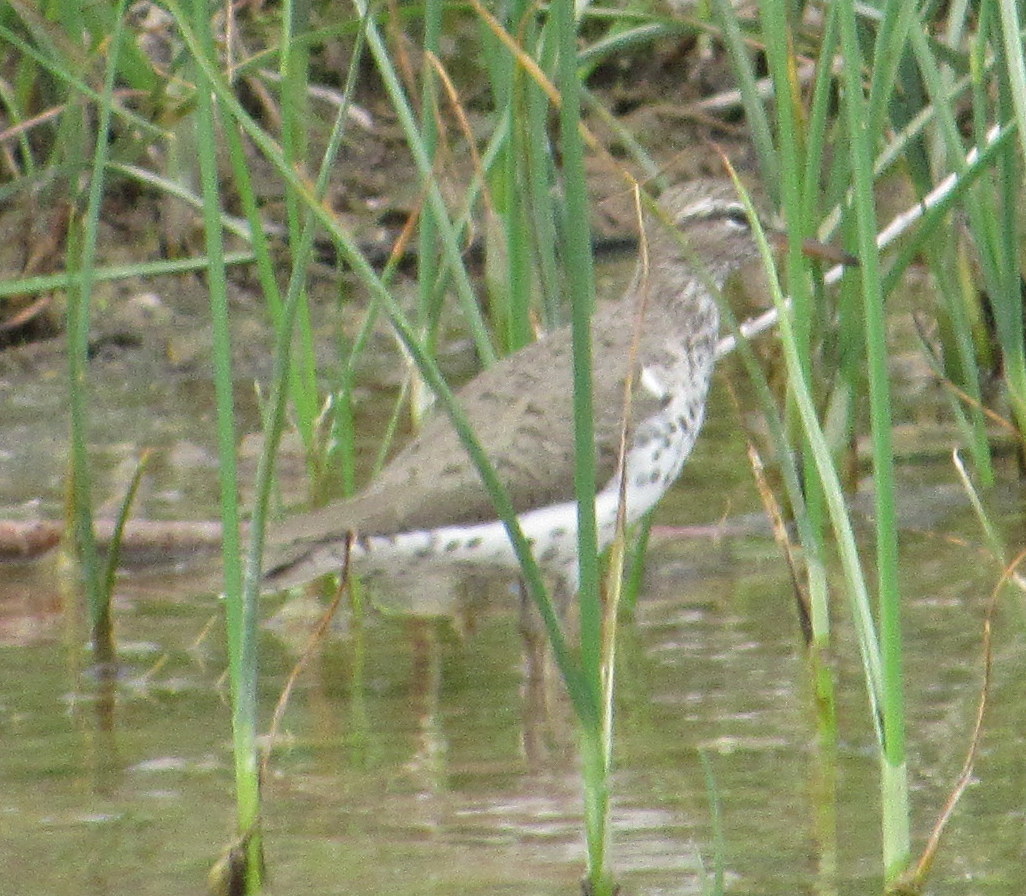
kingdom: Animalia
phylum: Chordata
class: Aves
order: Charadriiformes
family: Scolopacidae
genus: Actitis
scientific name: Actitis macularius
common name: Spotted sandpiper
